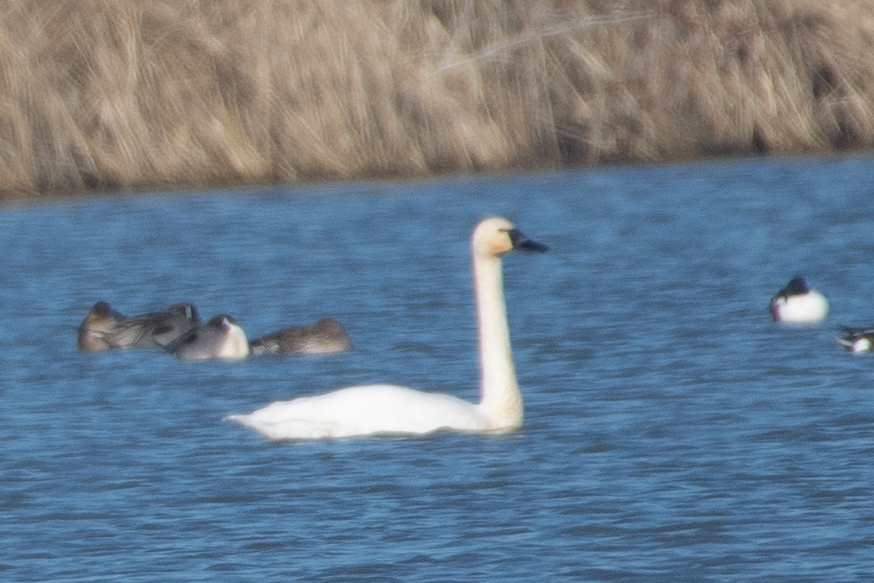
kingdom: Animalia
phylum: Chordata
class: Aves
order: Anseriformes
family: Anatidae
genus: Cygnus
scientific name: Cygnus columbianus
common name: Tundra swan
